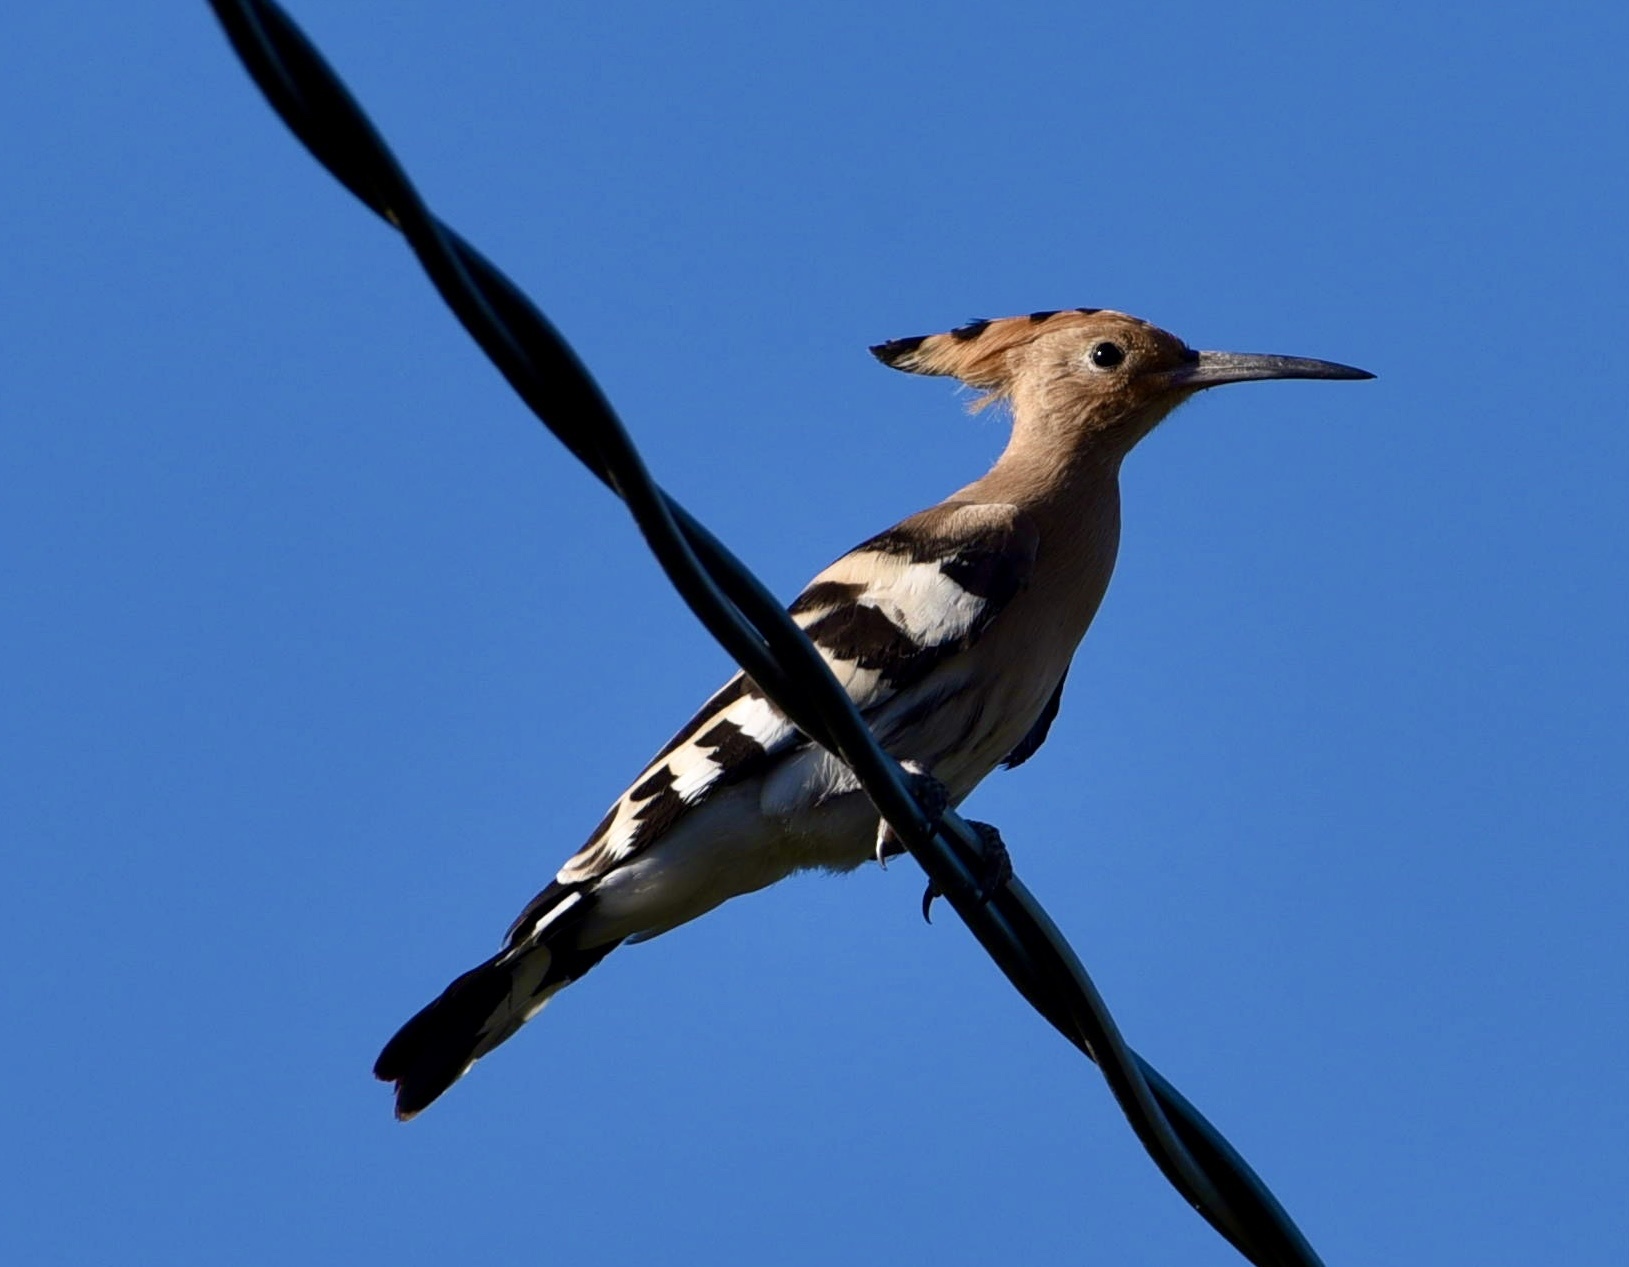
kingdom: Animalia
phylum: Chordata
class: Aves
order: Bucerotiformes
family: Upupidae
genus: Upupa
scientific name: Upupa epops
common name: Eurasian hoopoe
